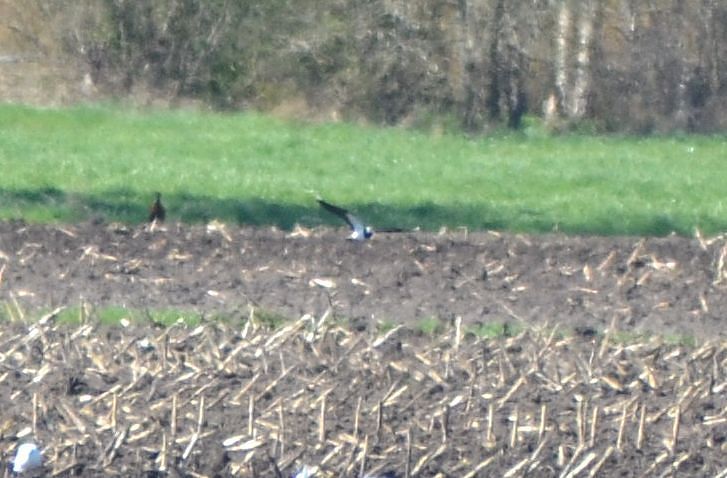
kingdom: Animalia
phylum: Chordata
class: Aves
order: Charadriiformes
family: Charadriidae
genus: Vanellus
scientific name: Vanellus vanellus
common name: Northern lapwing
